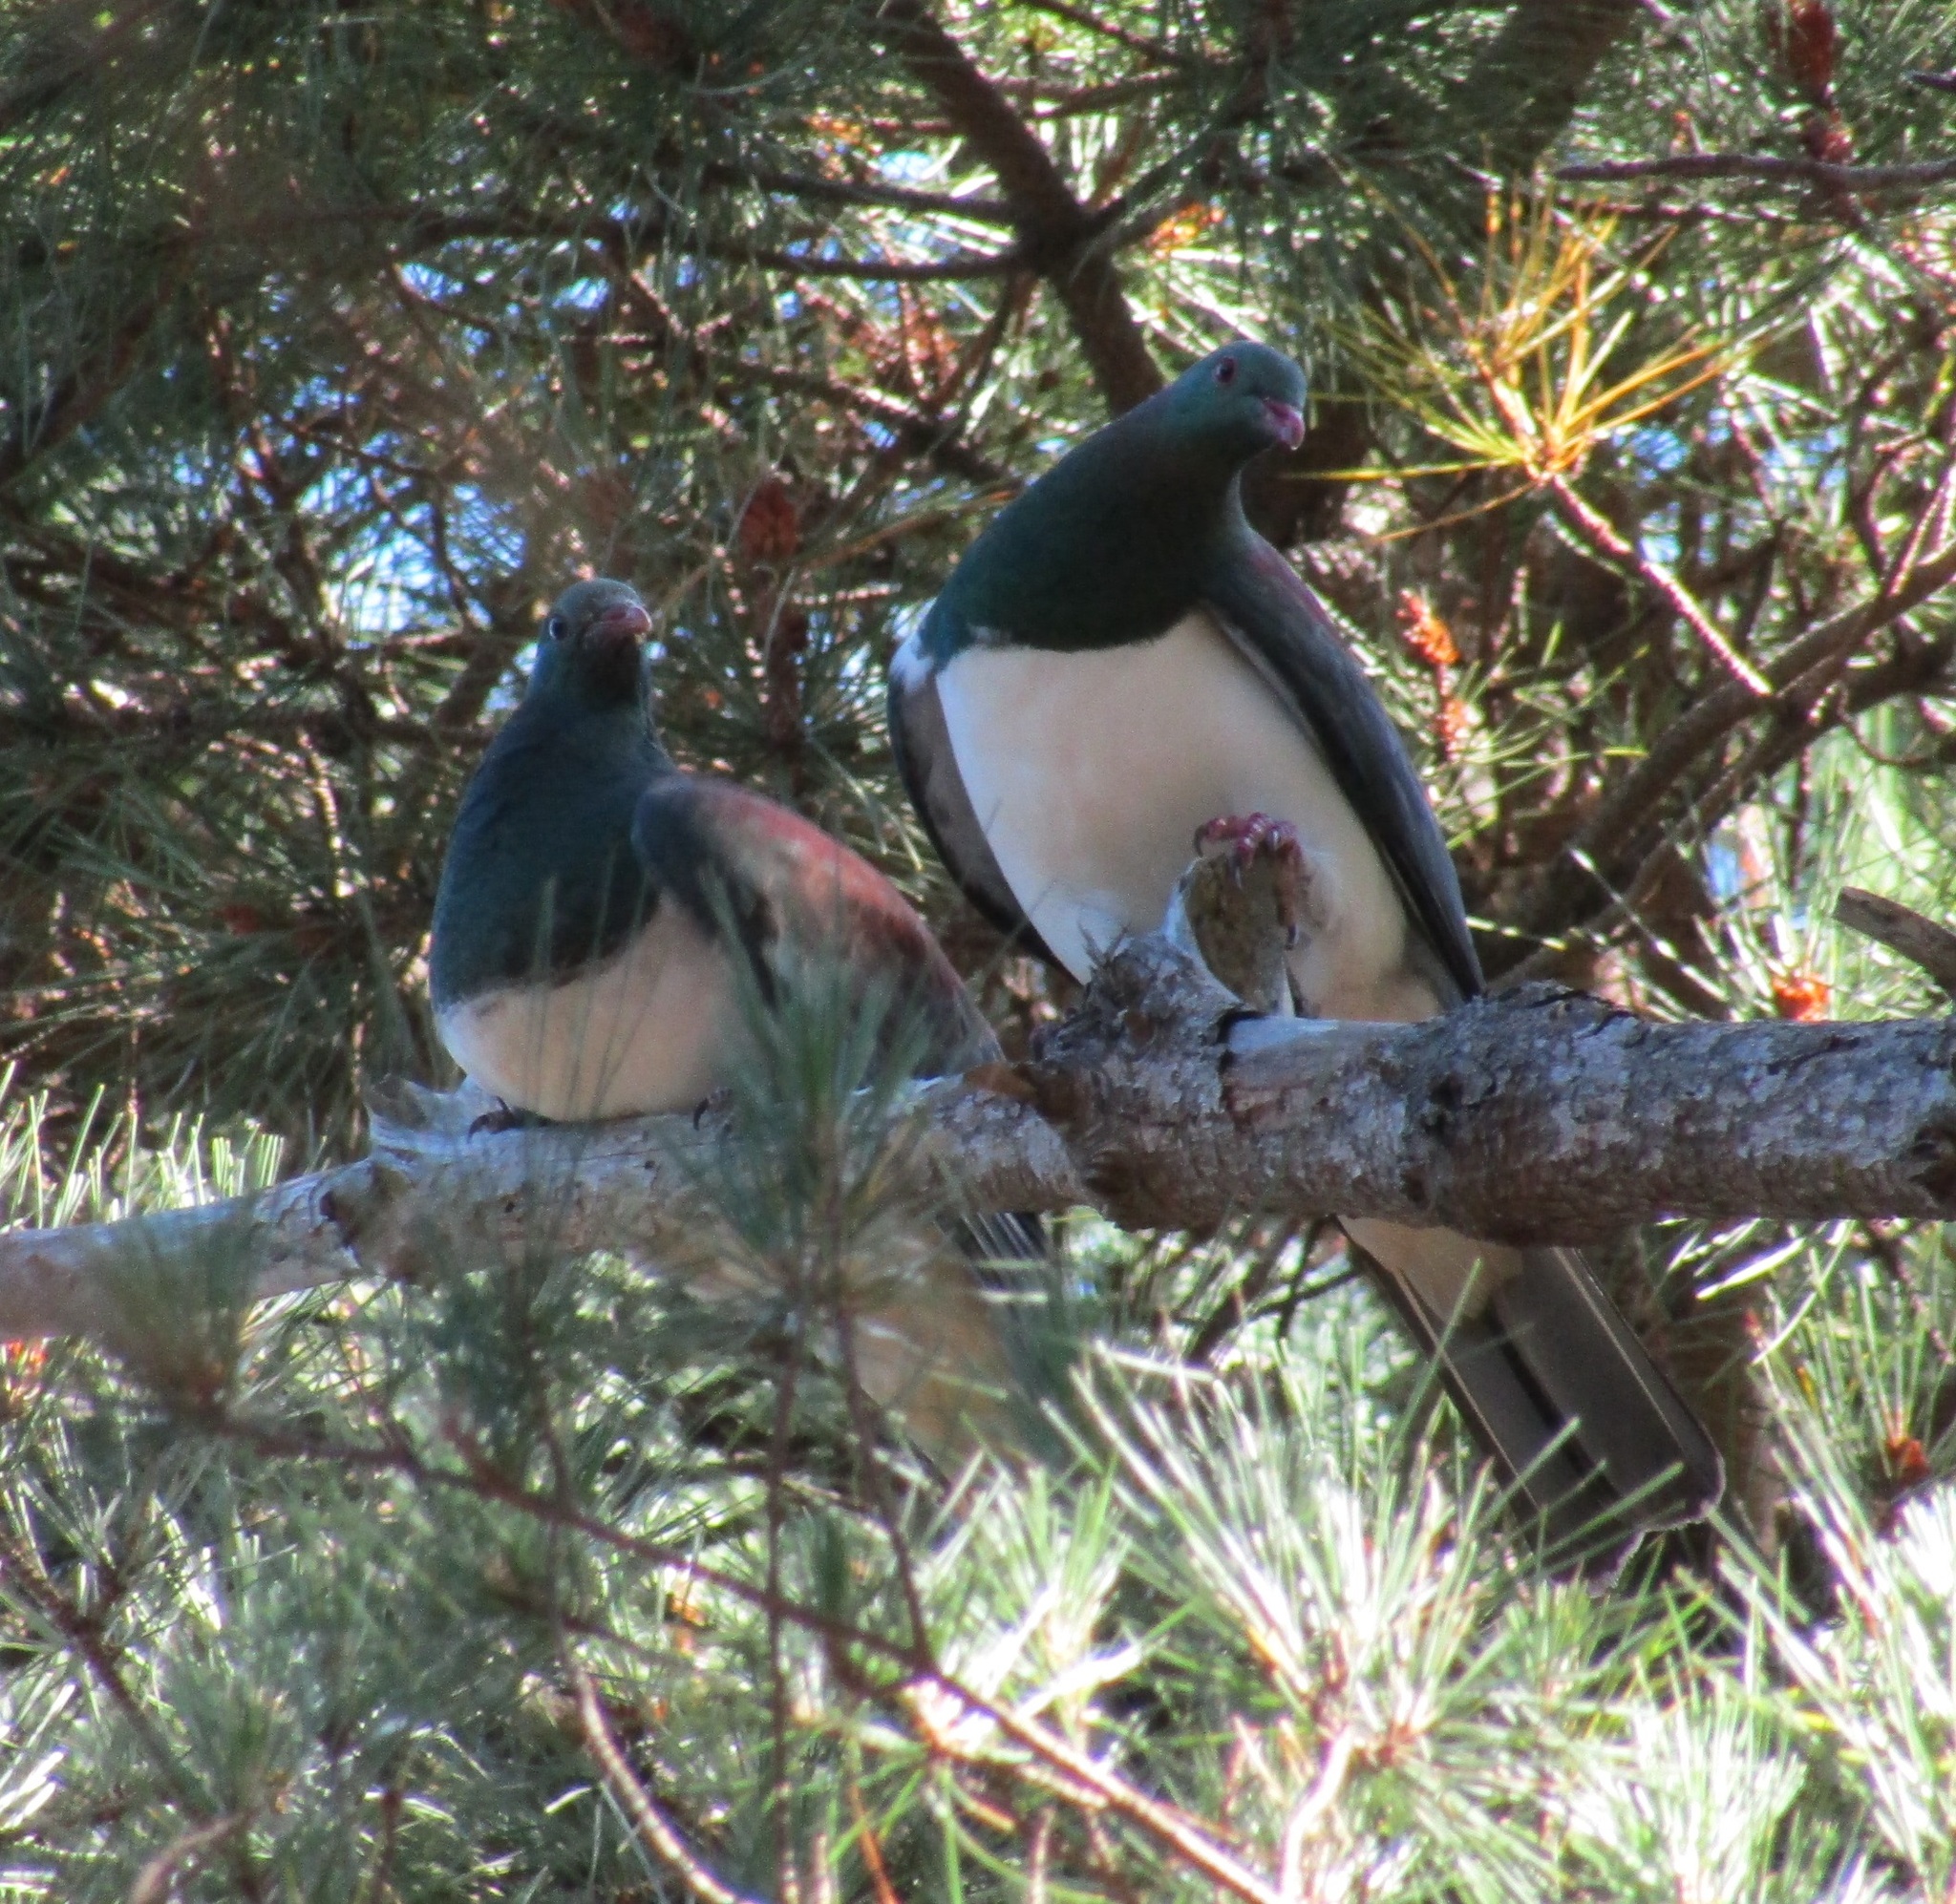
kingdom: Animalia
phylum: Chordata
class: Aves
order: Columbiformes
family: Columbidae
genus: Hemiphaga
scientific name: Hemiphaga novaeseelandiae
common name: New zealand pigeon
